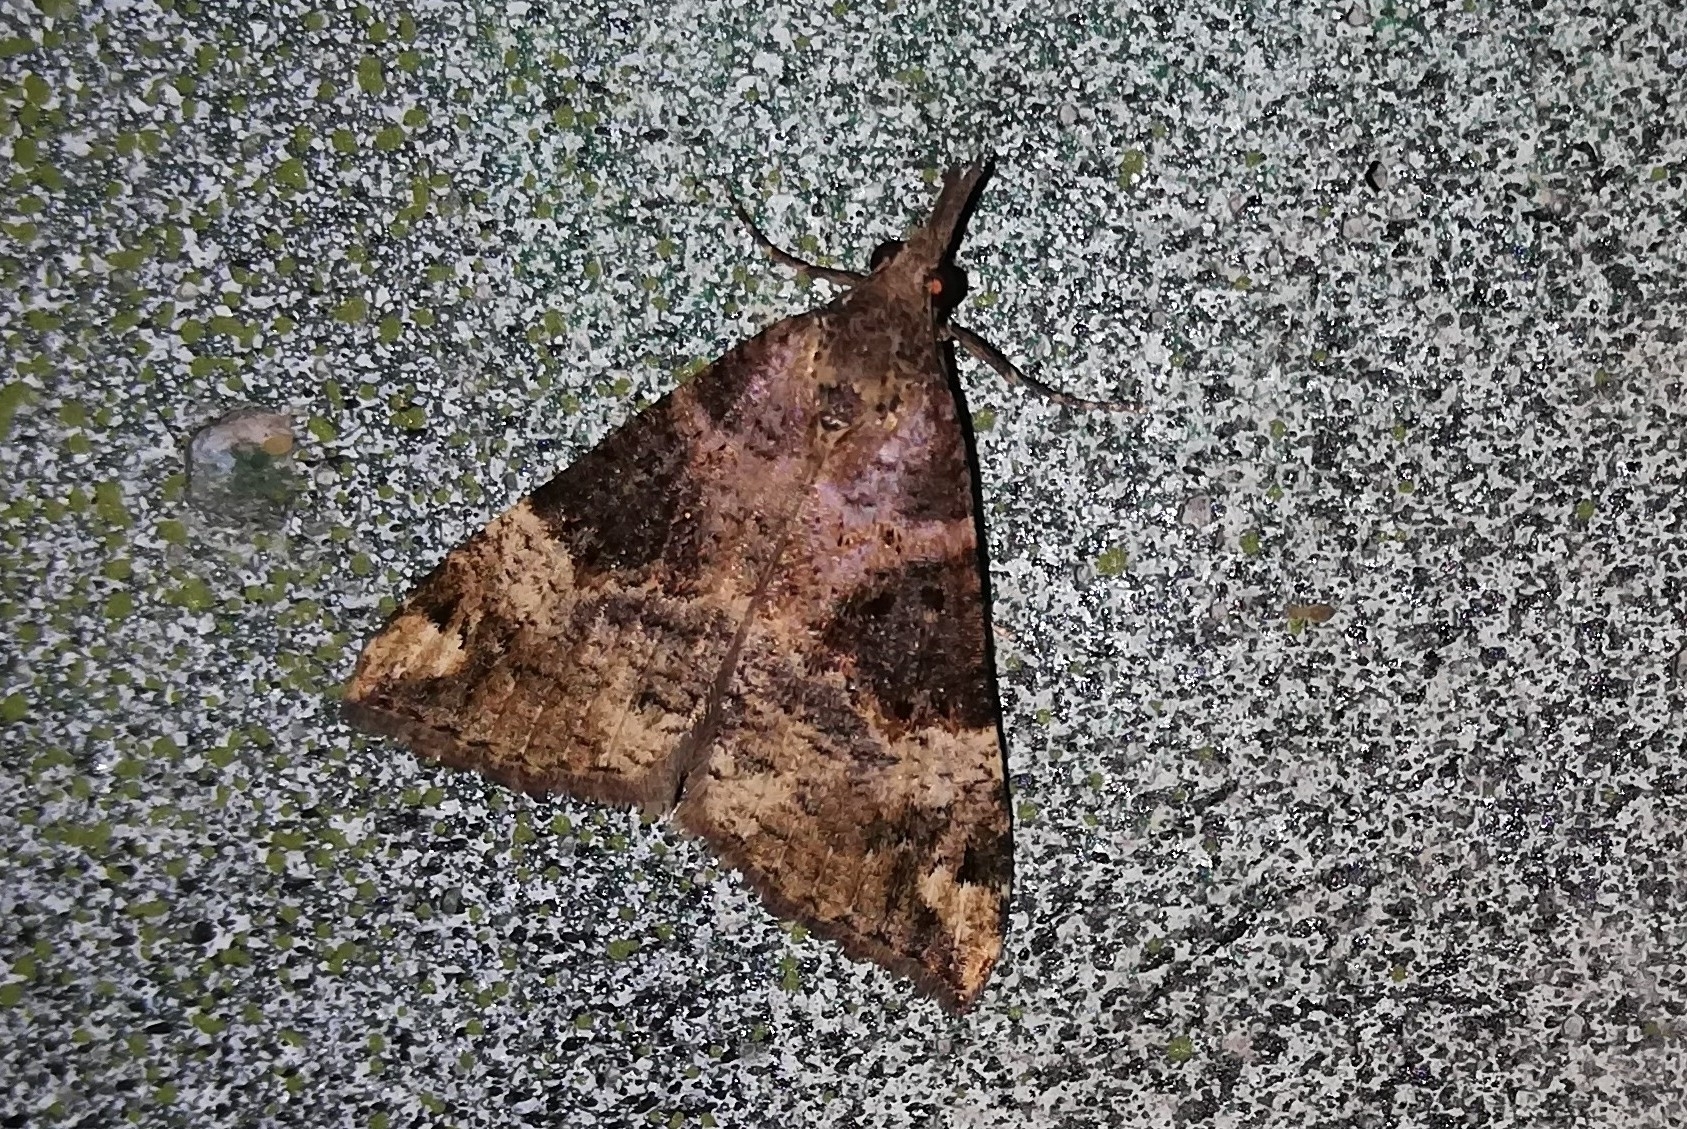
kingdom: Animalia
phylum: Arthropoda
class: Insecta
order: Lepidoptera
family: Erebidae
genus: Hypena
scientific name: Hypena obsitalis
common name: Bloxworth snout
